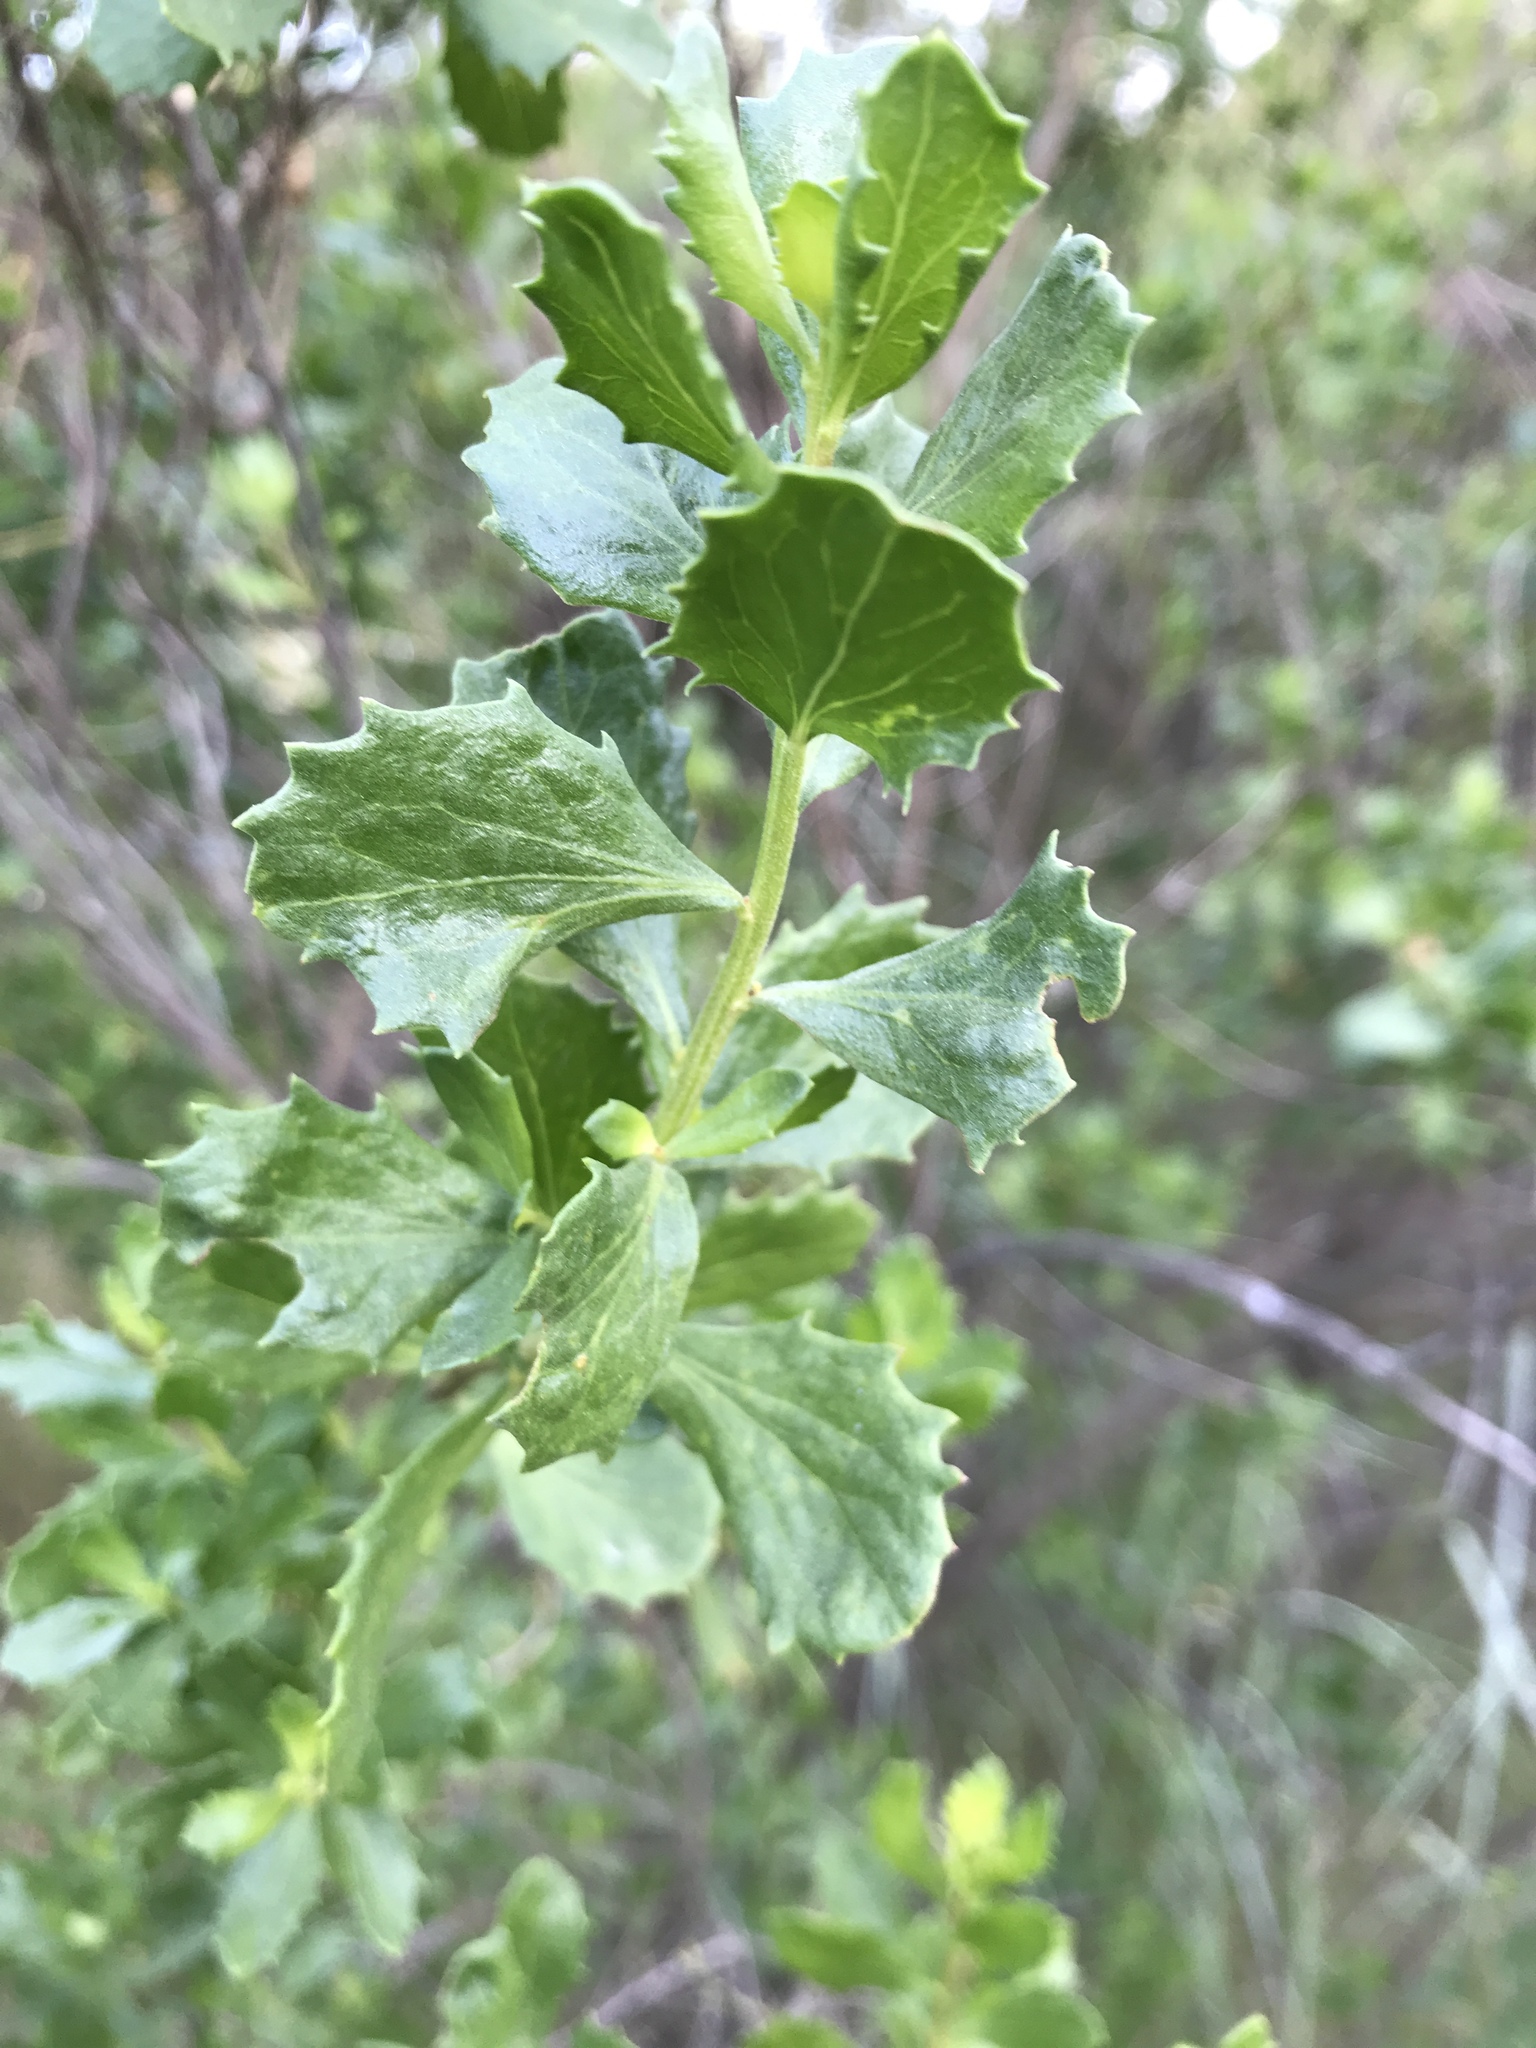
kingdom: Plantae
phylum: Tracheophyta
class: Magnoliopsida
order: Asterales
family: Asteraceae
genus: Baccharis
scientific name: Baccharis pilularis
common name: Coyotebrush
